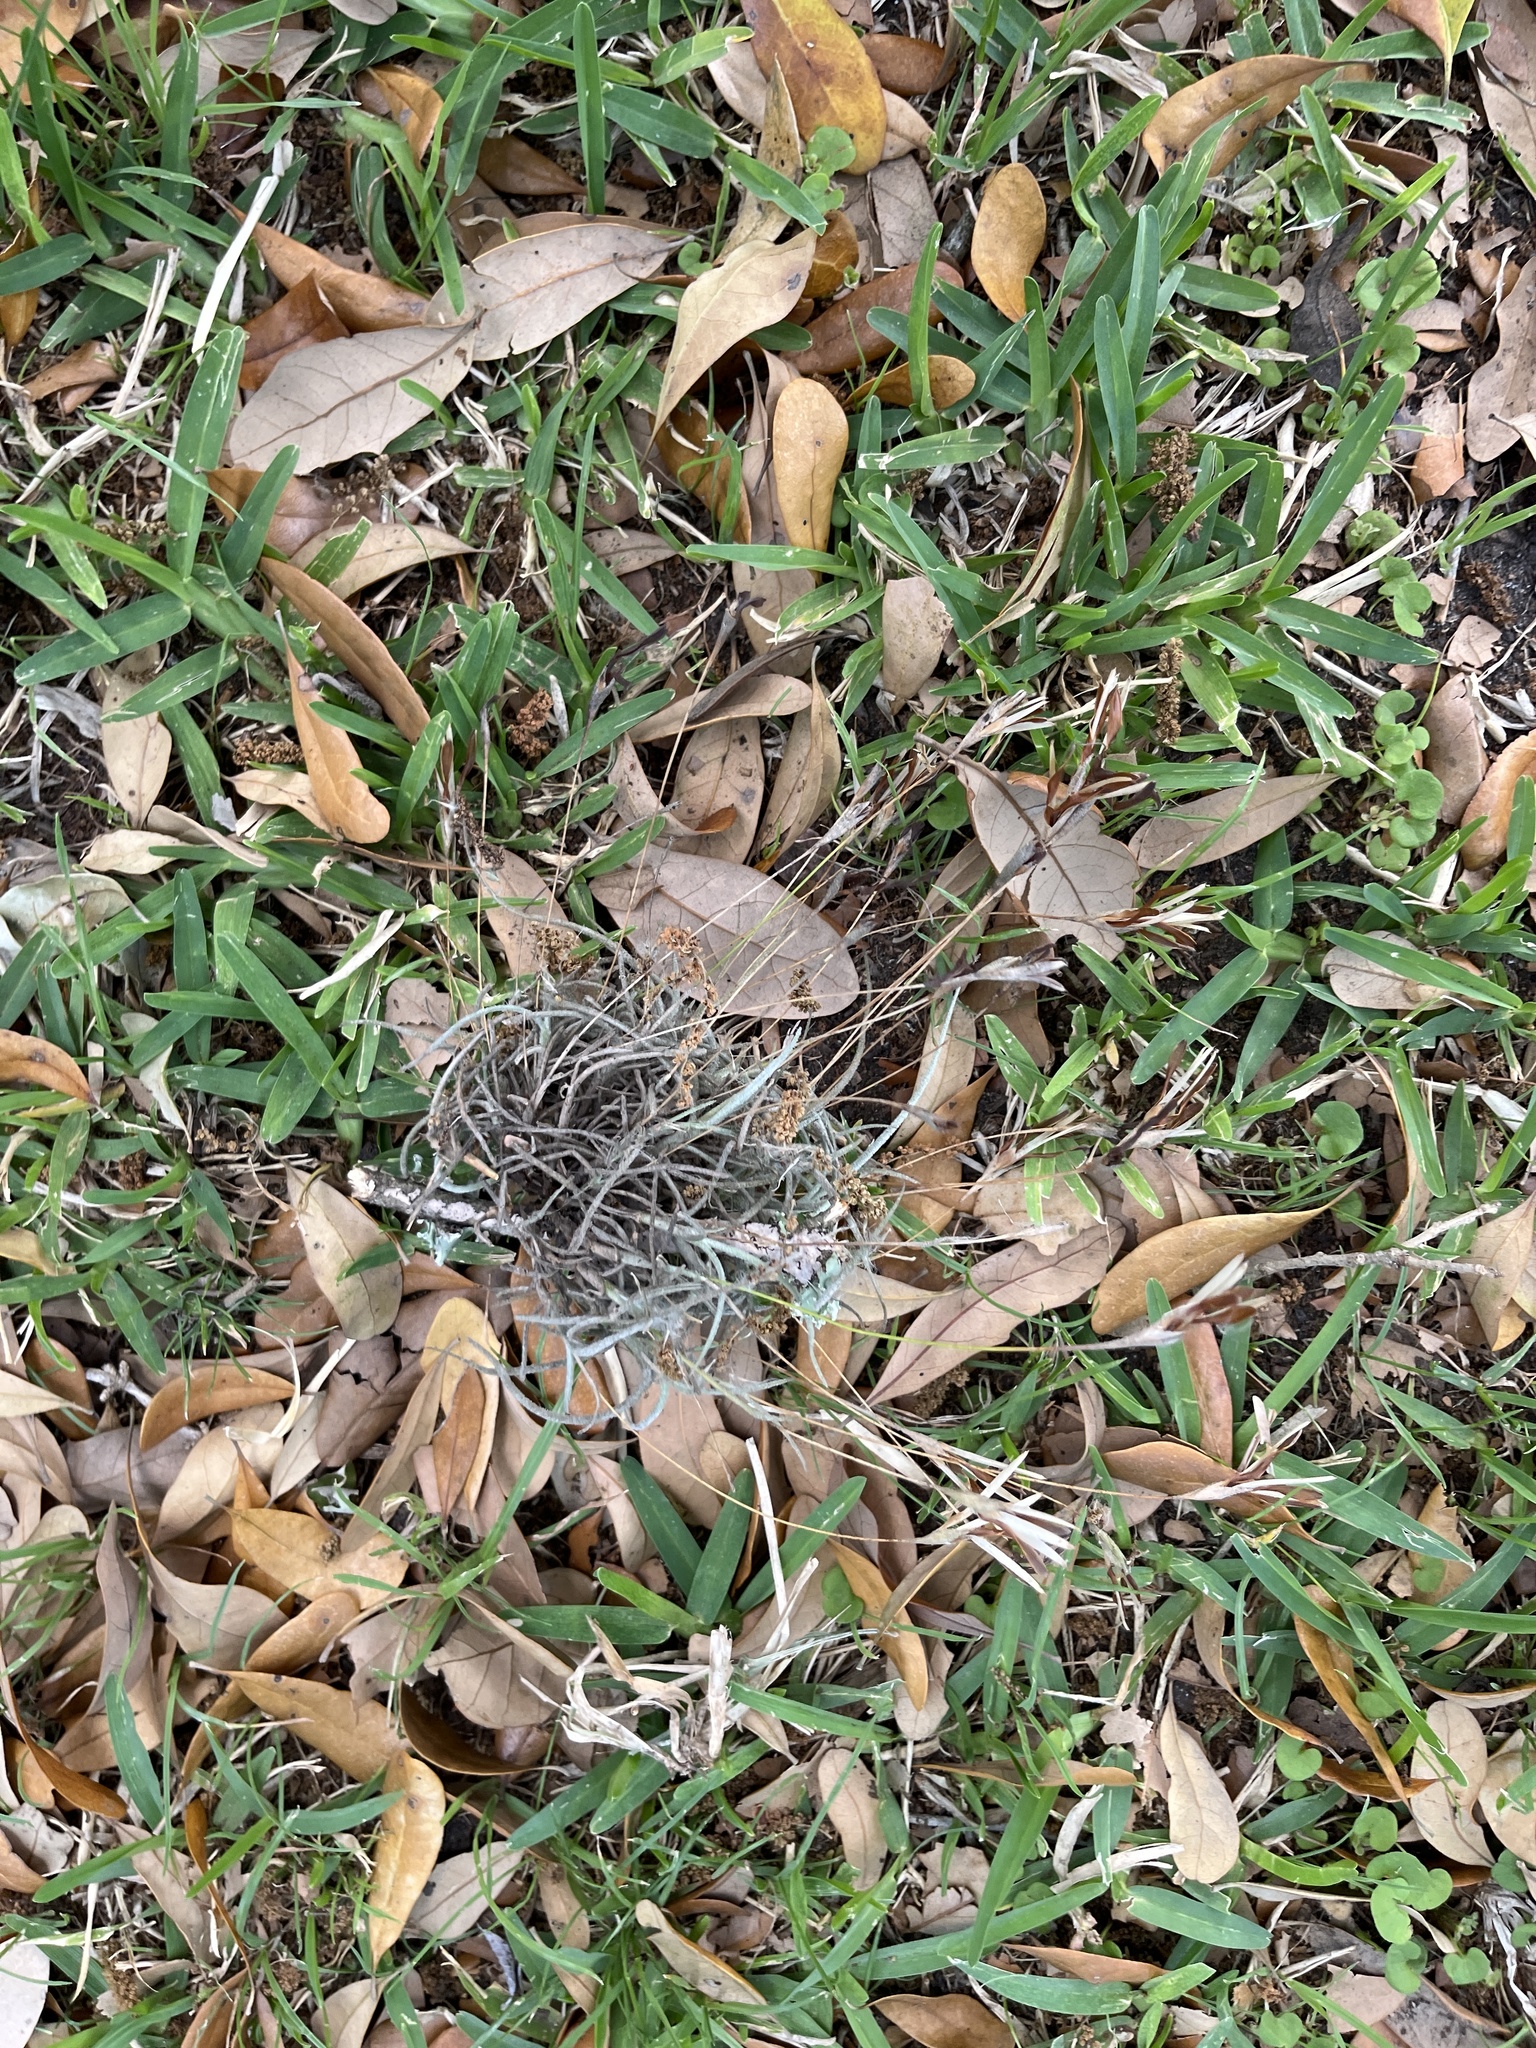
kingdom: Plantae
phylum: Tracheophyta
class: Liliopsida
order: Poales
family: Bromeliaceae
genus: Tillandsia
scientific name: Tillandsia recurvata
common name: Small ballmoss
